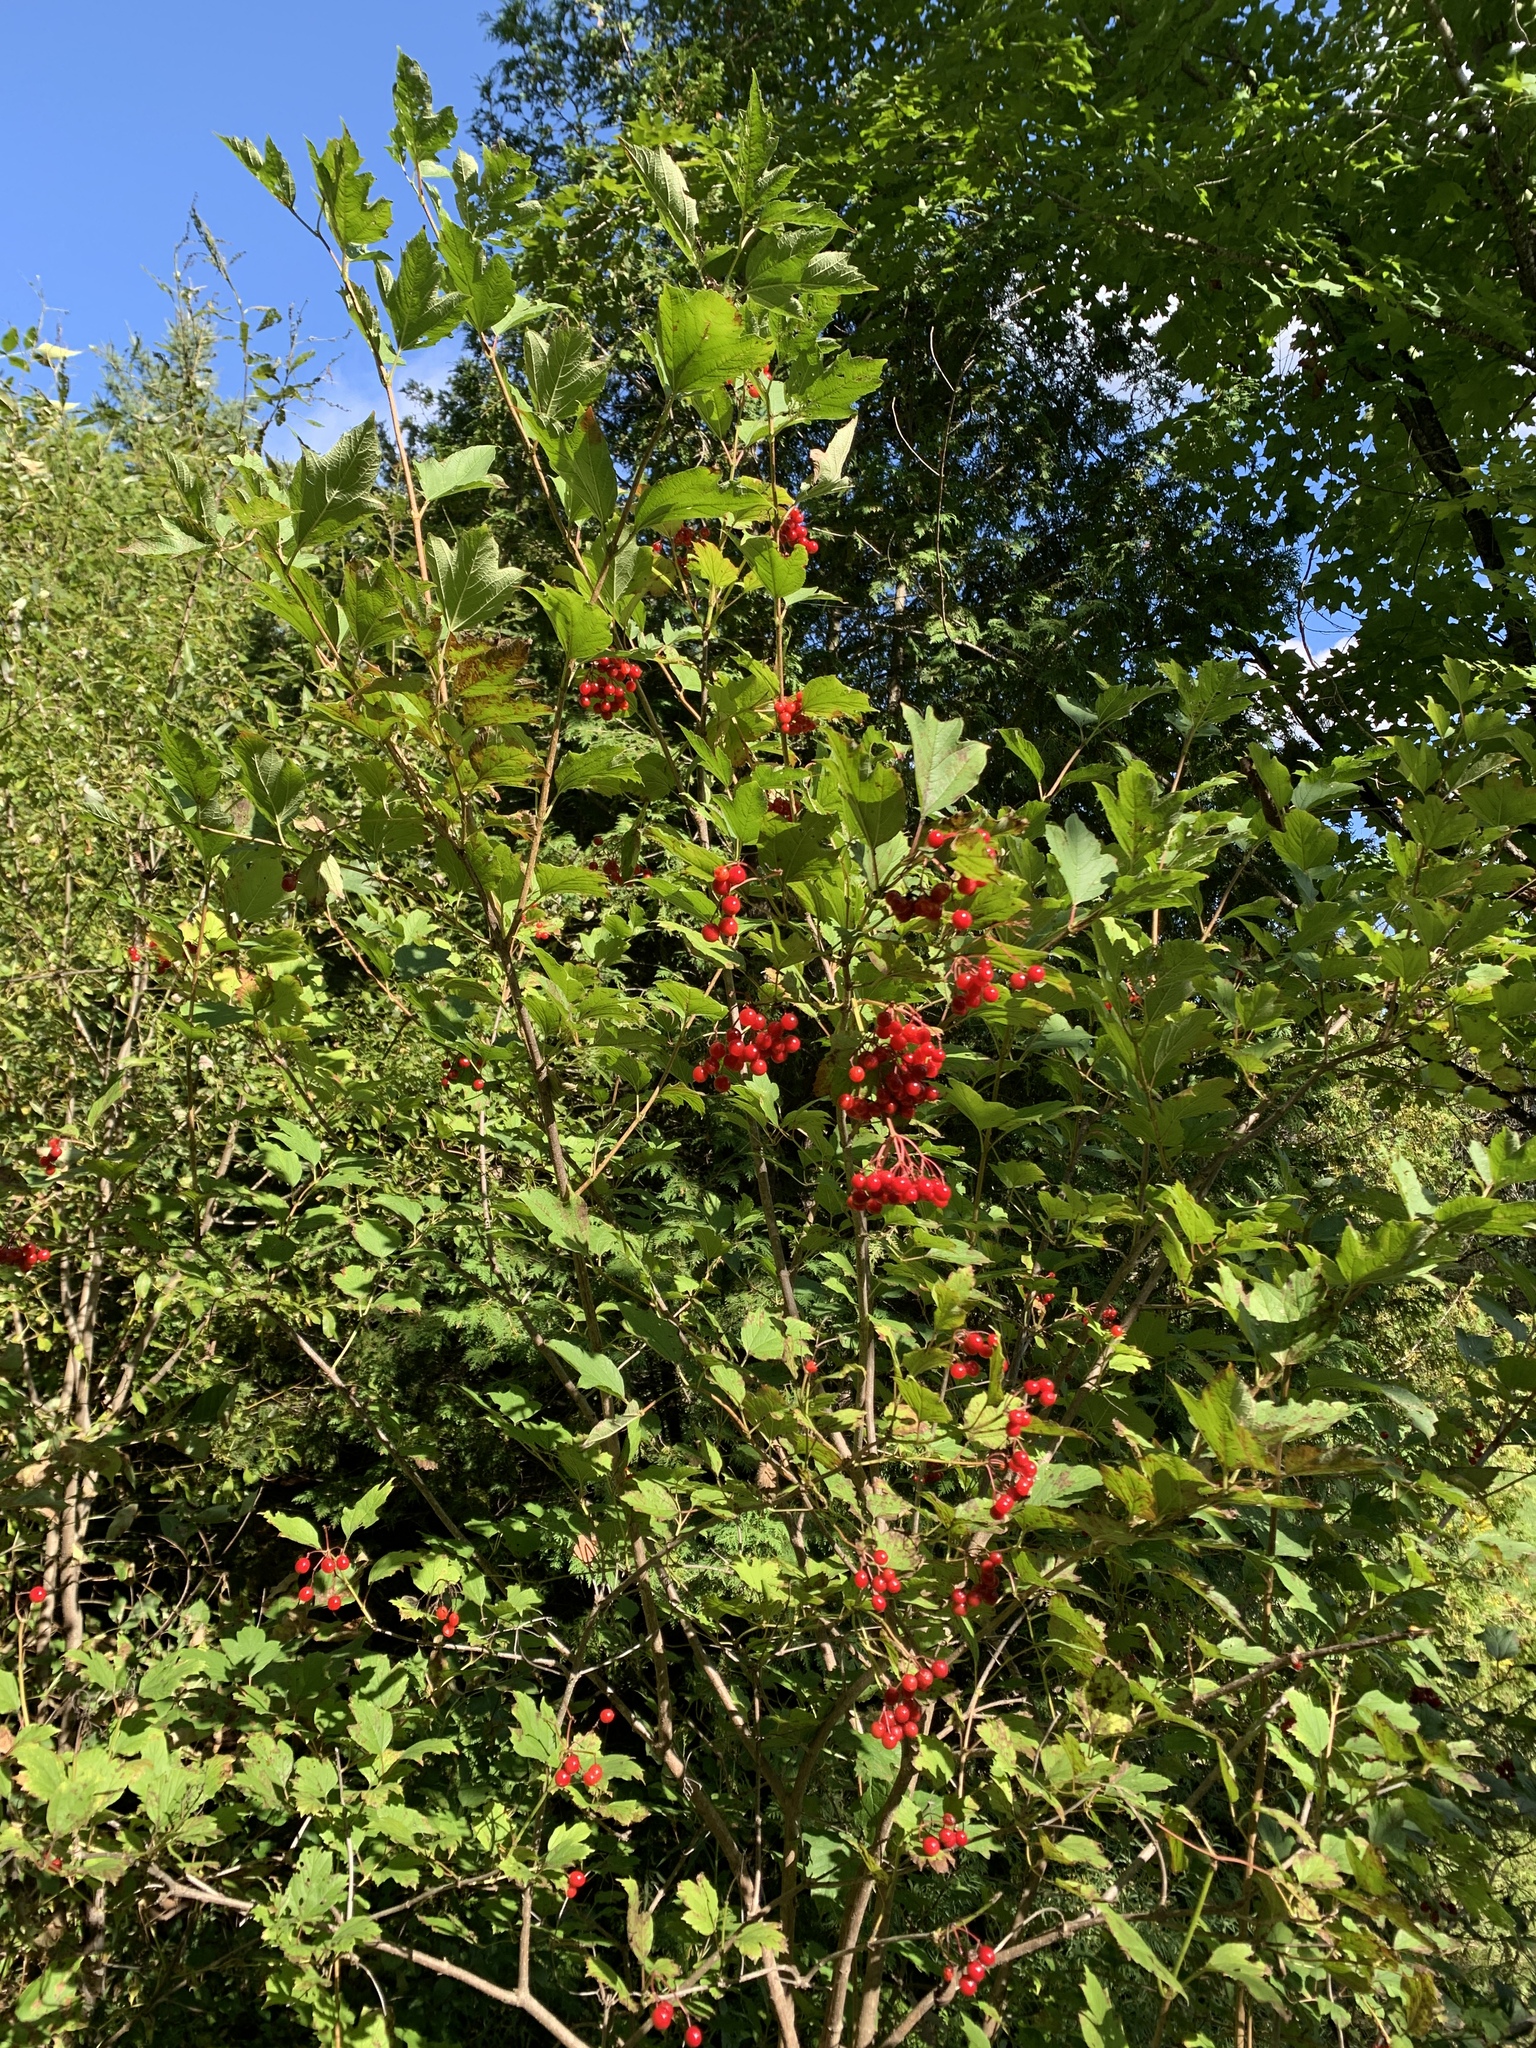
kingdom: Plantae
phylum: Tracheophyta
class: Magnoliopsida
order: Dipsacales
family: Viburnaceae
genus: Viburnum
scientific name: Viburnum opulus
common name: Guelder-rose
